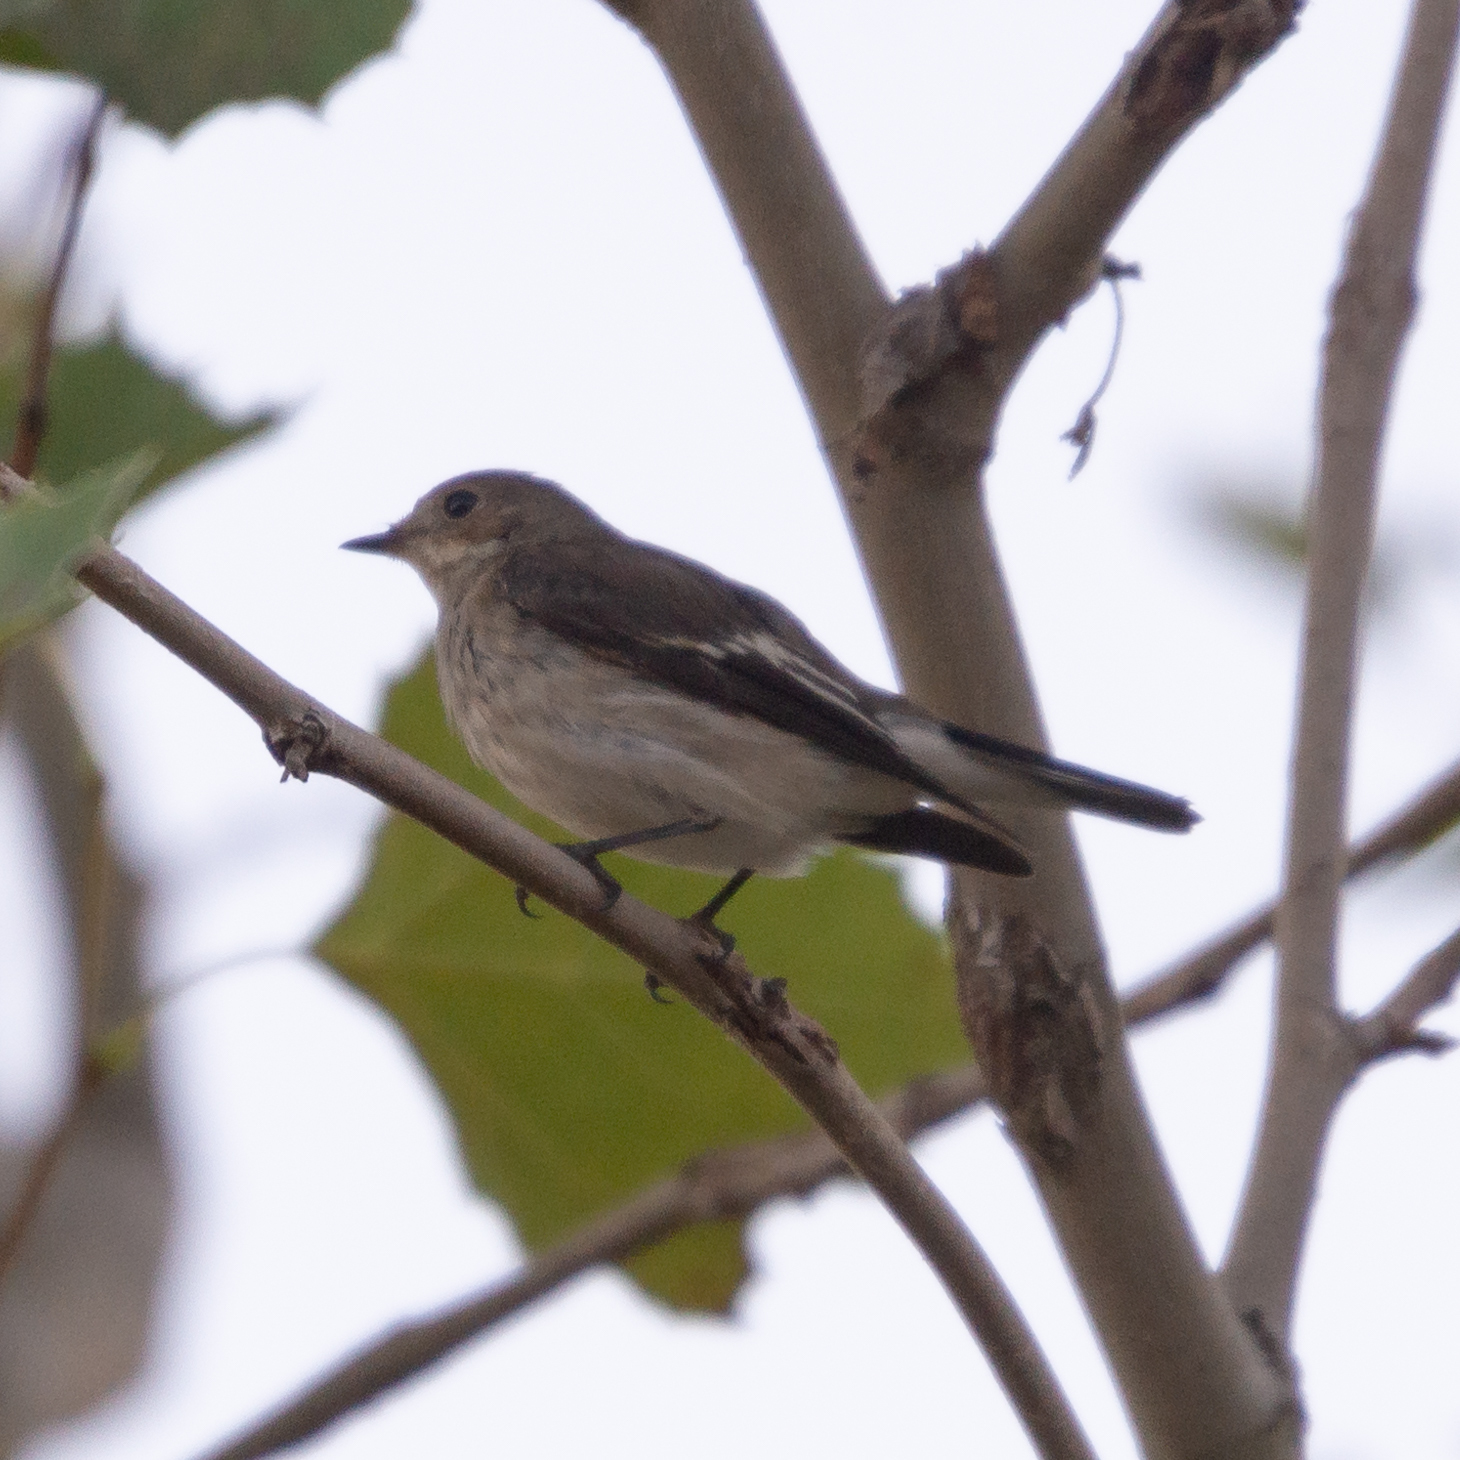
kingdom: Animalia
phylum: Chordata
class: Aves
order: Passeriformes
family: Muscicapidae
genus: Ficedula
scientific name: Ficedula hypoleuca
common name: European pied flycatcher
